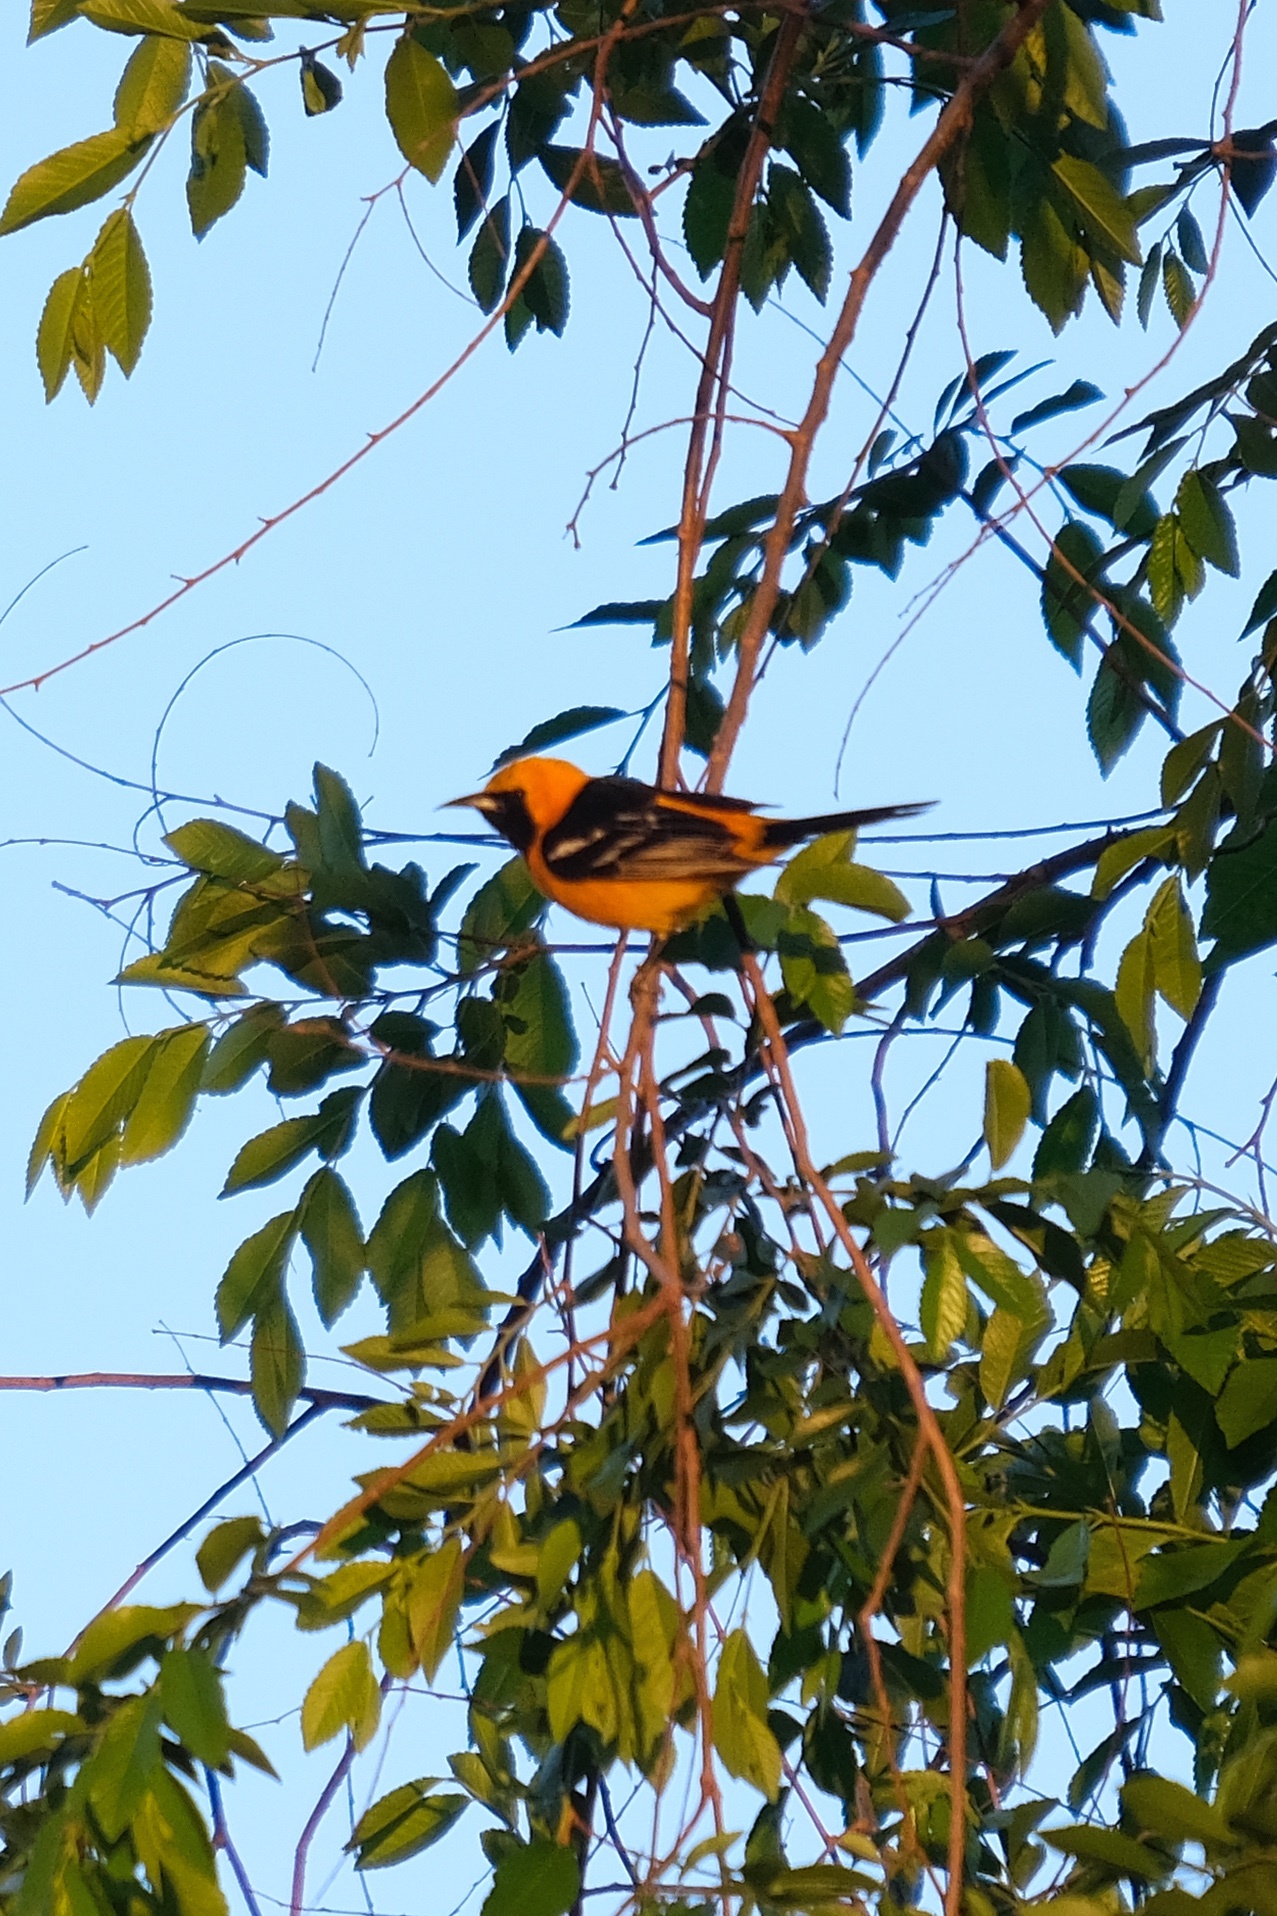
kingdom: Animalia
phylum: Chordata
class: Aves
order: Passeriformes
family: Icteridae
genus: Icterus
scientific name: Icterus cucullatus
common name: Hooded oriole
